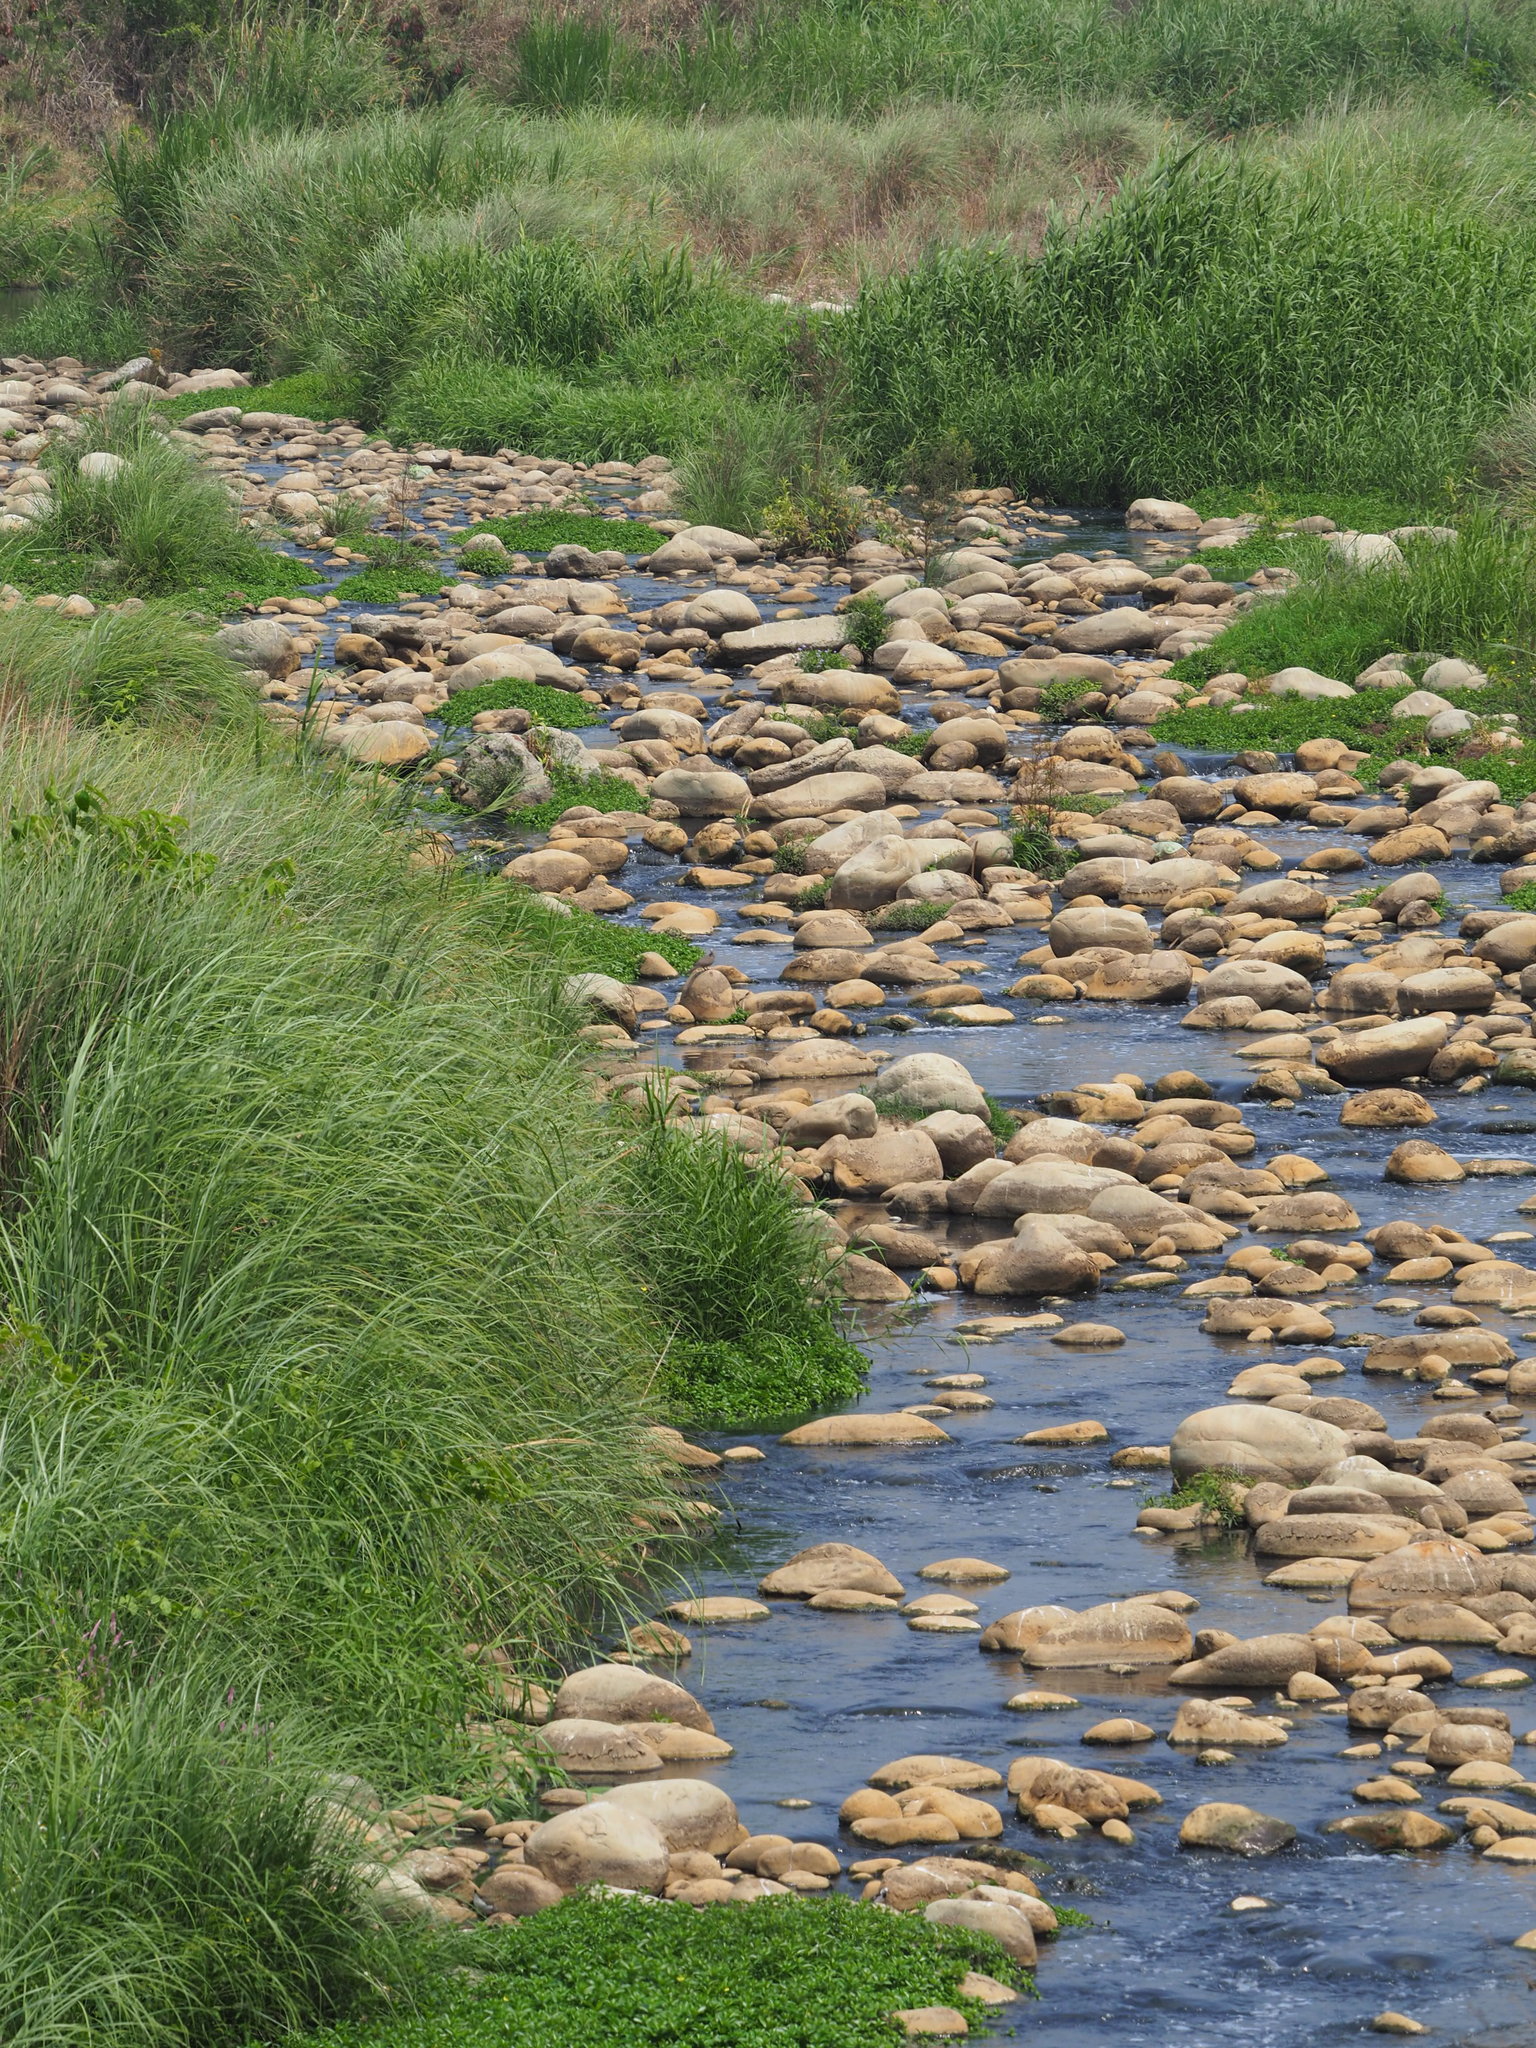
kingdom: Plantae
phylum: Tracheophyta
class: Liliopsida
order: Poales
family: Poaceae
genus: Saccharum
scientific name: Saccharum spontaneum
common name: Wild sugarcane
